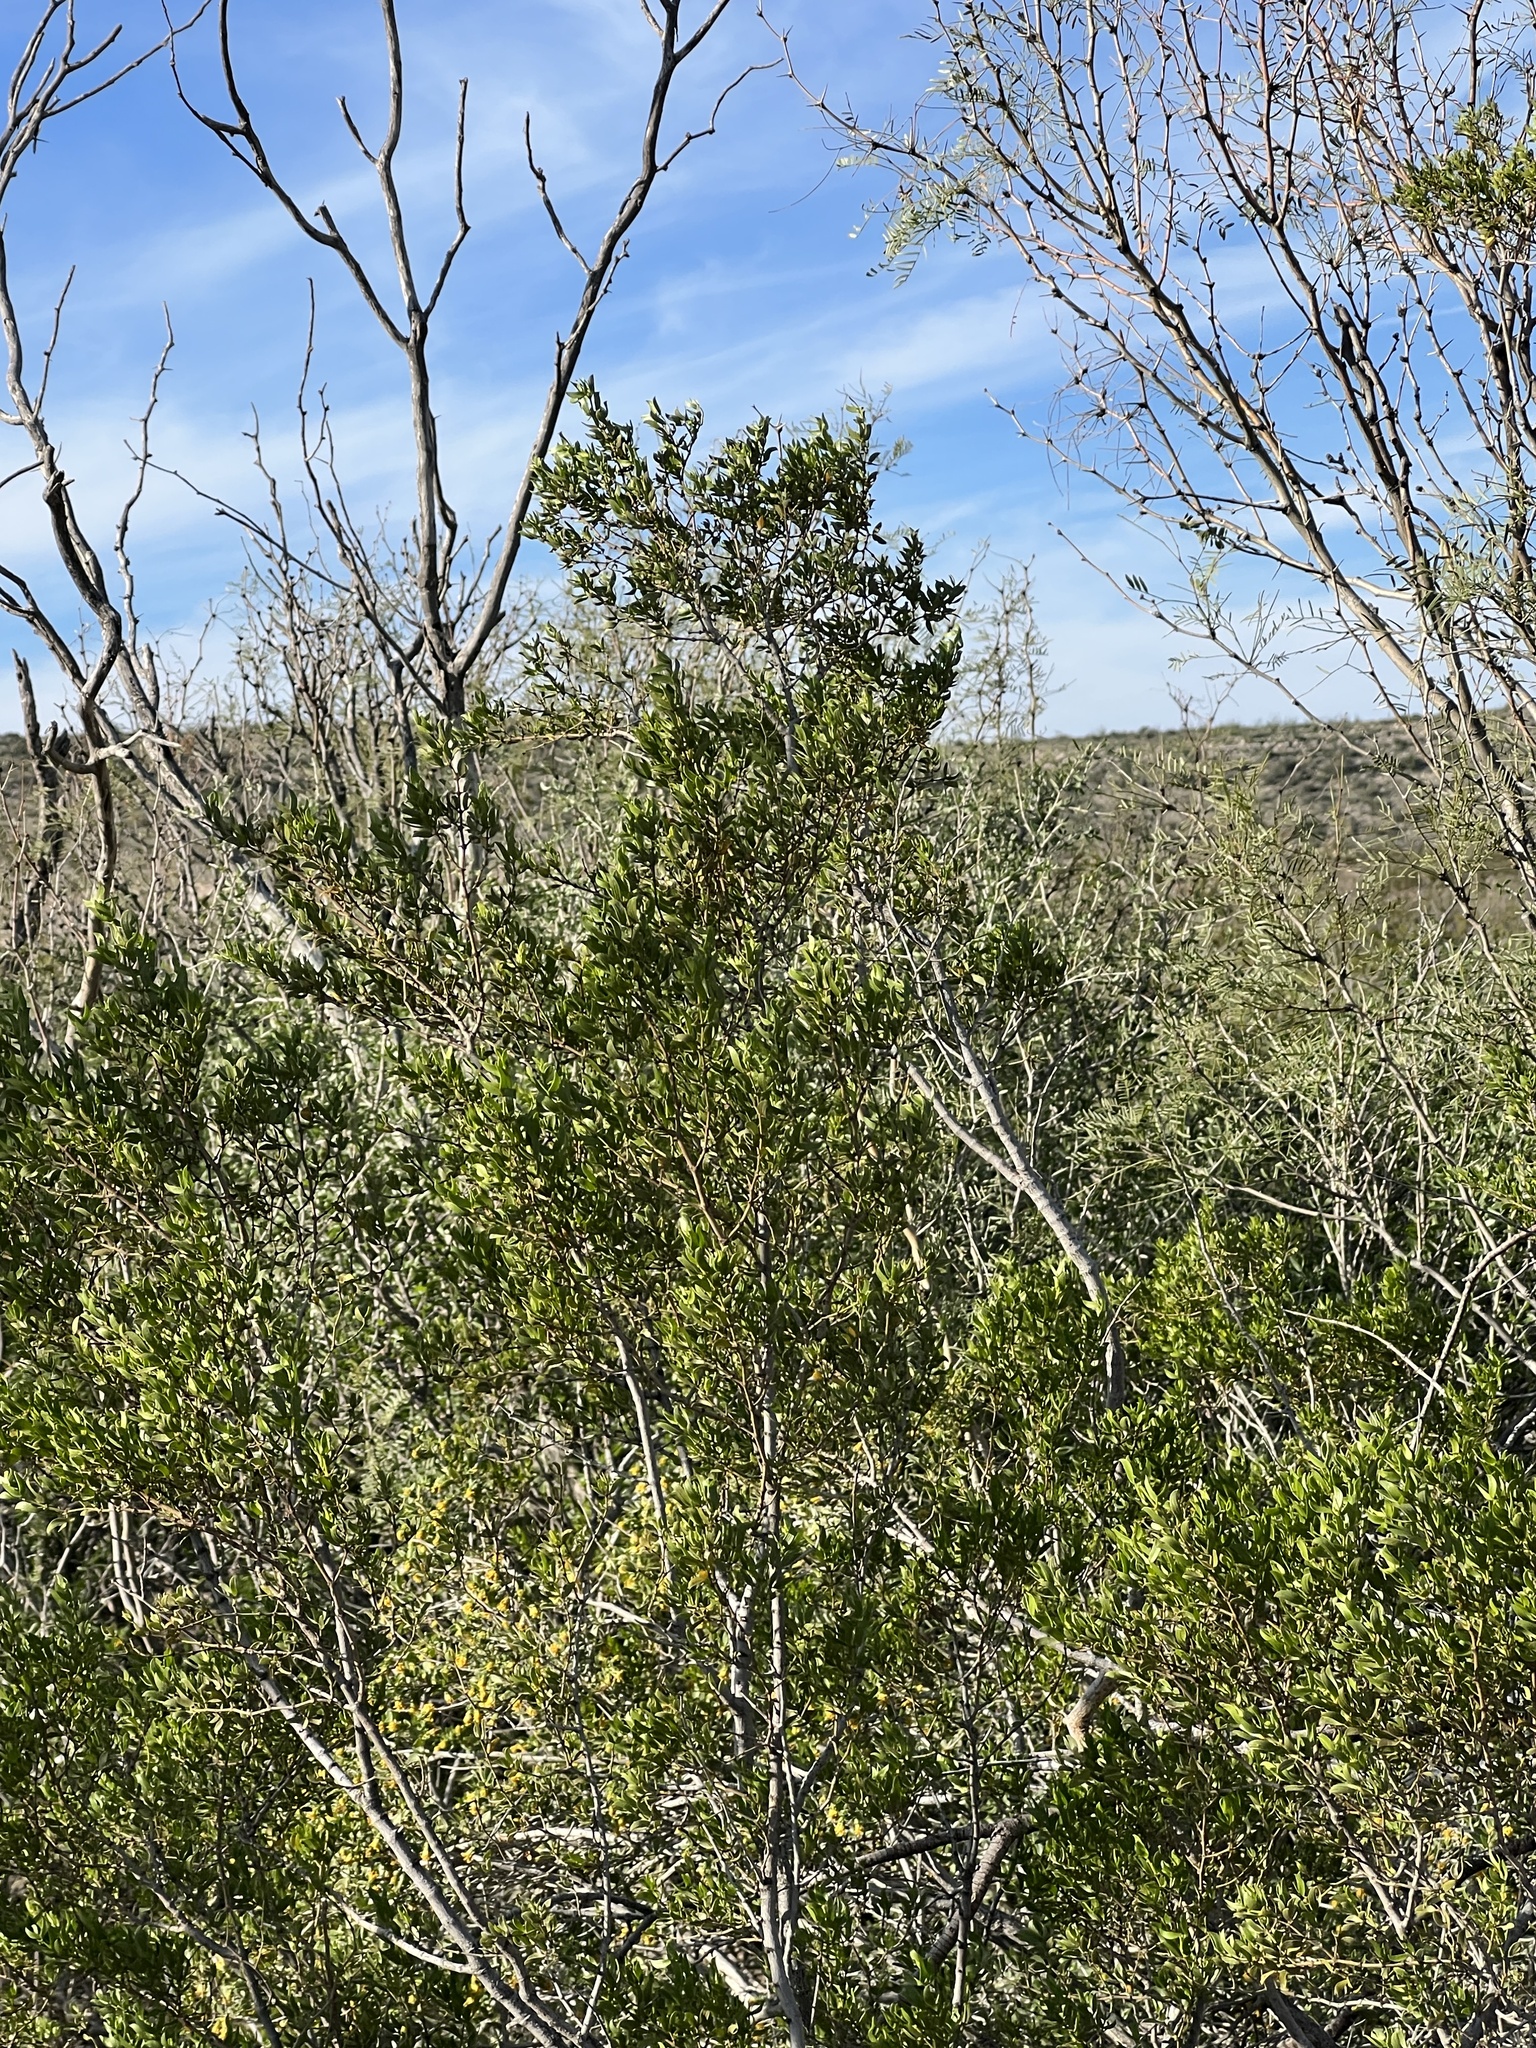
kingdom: Plantae
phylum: Tracheophyta
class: Magnoliopsida
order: Zygophyllales
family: Zygophyllaceae
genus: Larrea
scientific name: Larrea tridentata
